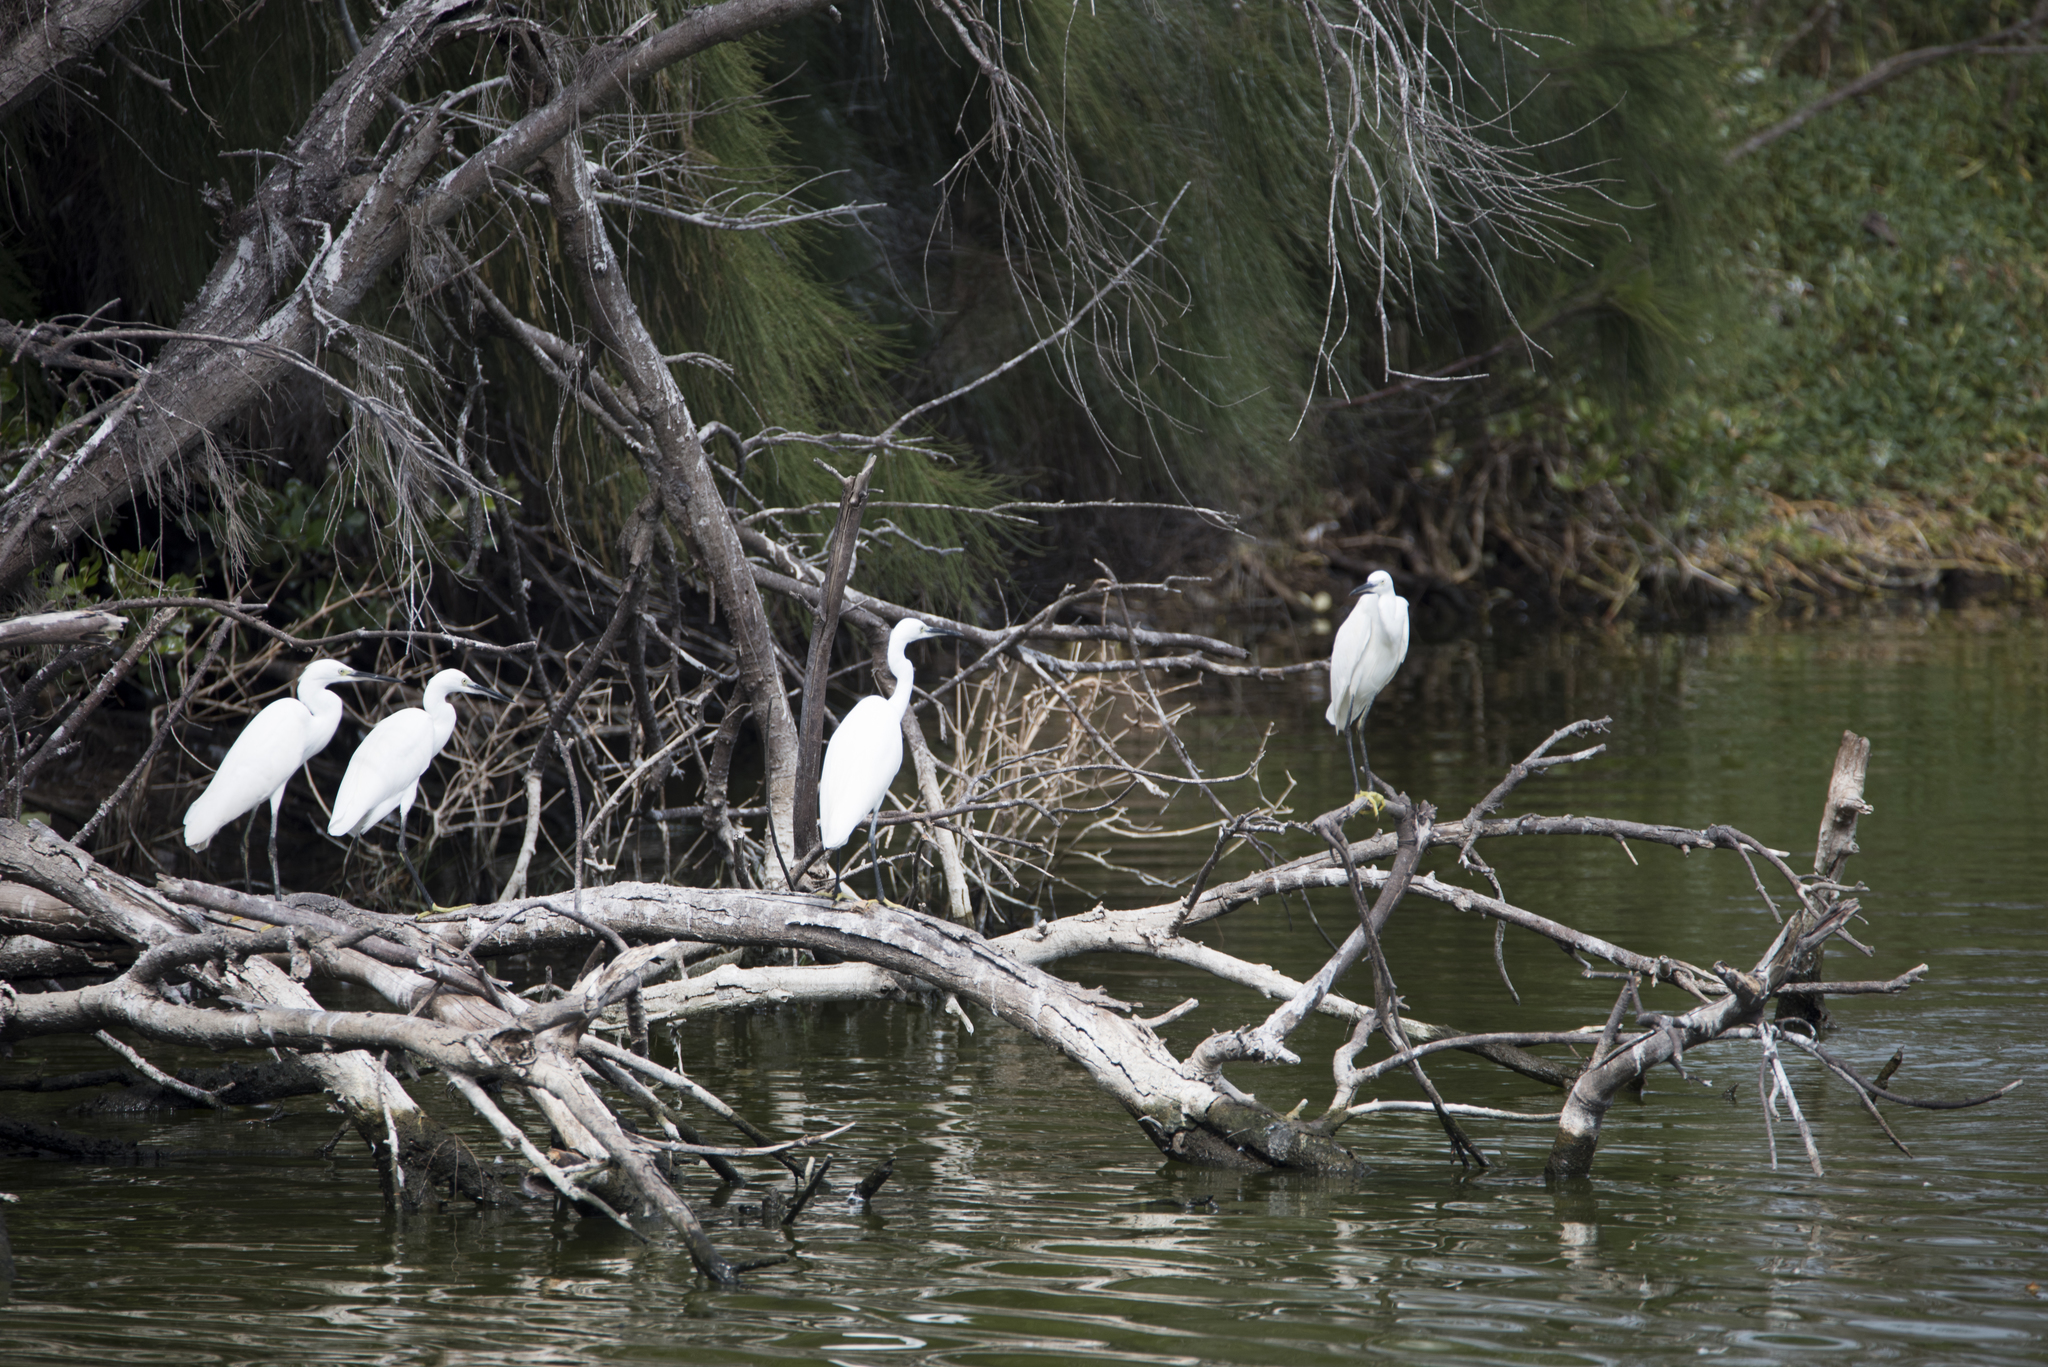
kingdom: Animalia
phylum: Chordata
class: Aves
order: Pelecaniformes
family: Ardeidae
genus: Egretta
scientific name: Egretta garzetta
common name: Little egret
